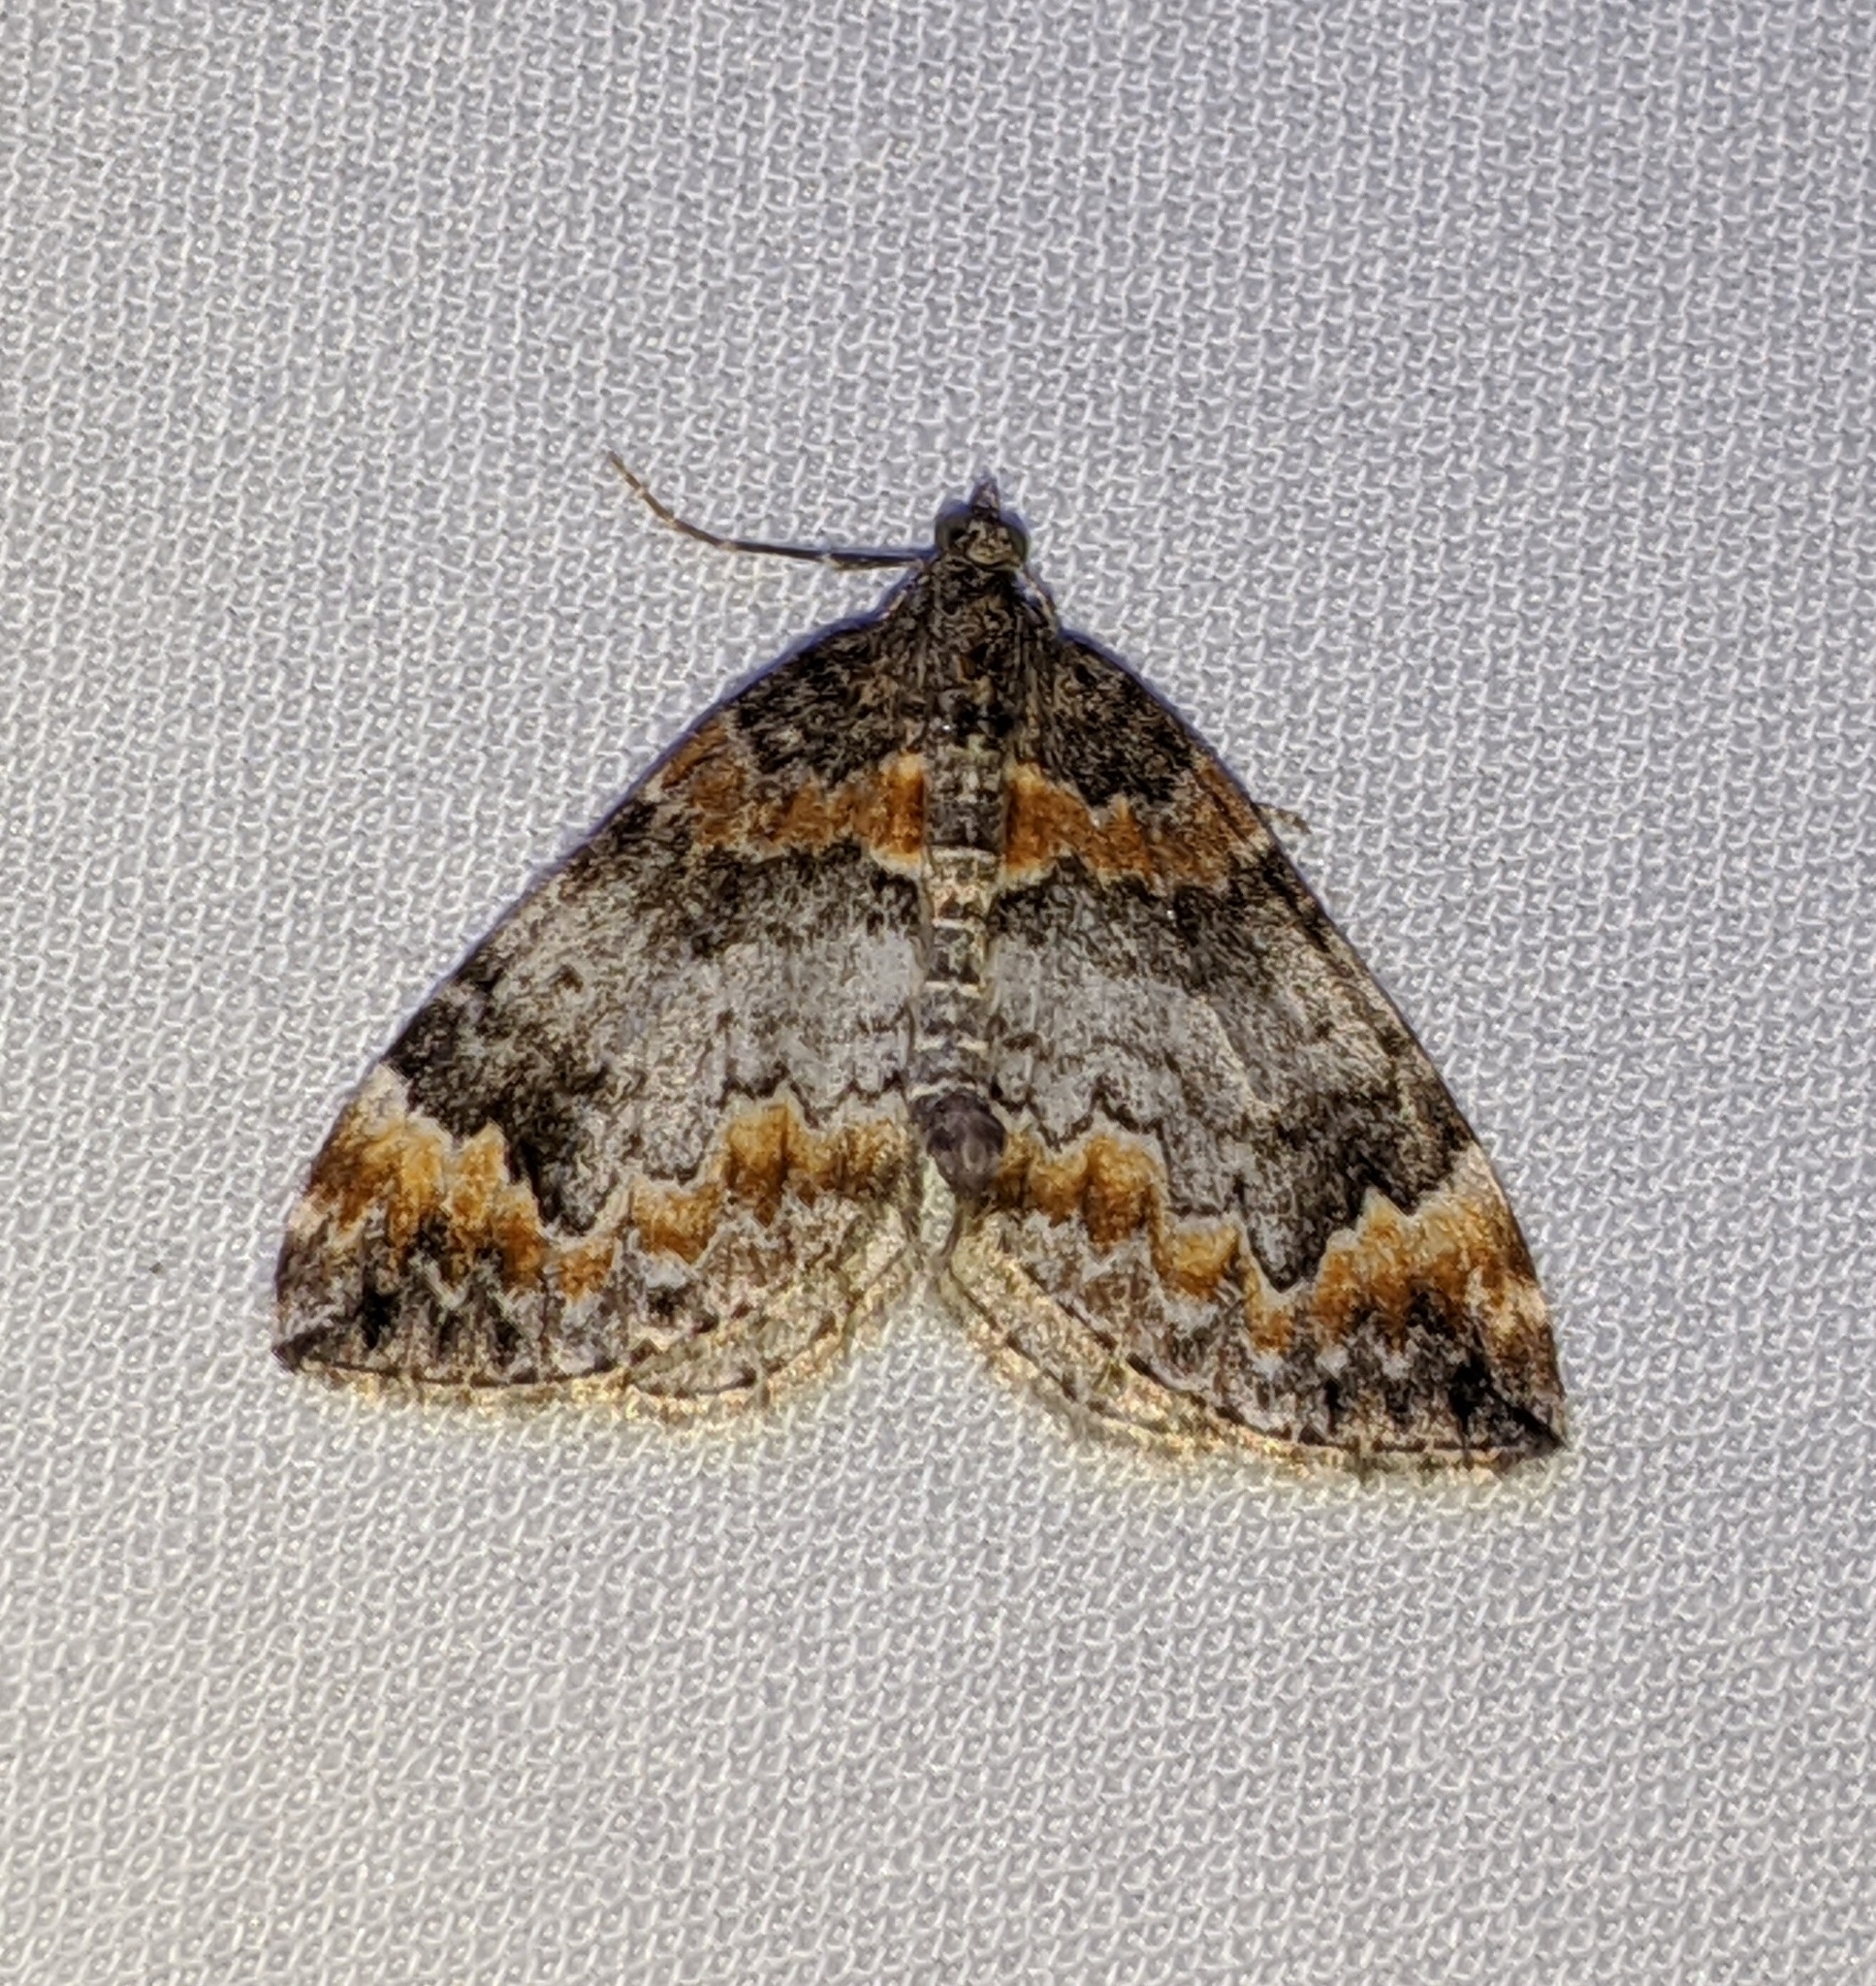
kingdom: Animalia
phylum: Arthropoda
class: Insecta
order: Lepidoptera
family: Geometridae
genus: Dysstroma
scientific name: Dysstroma citrata
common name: Dark marbled carpet
